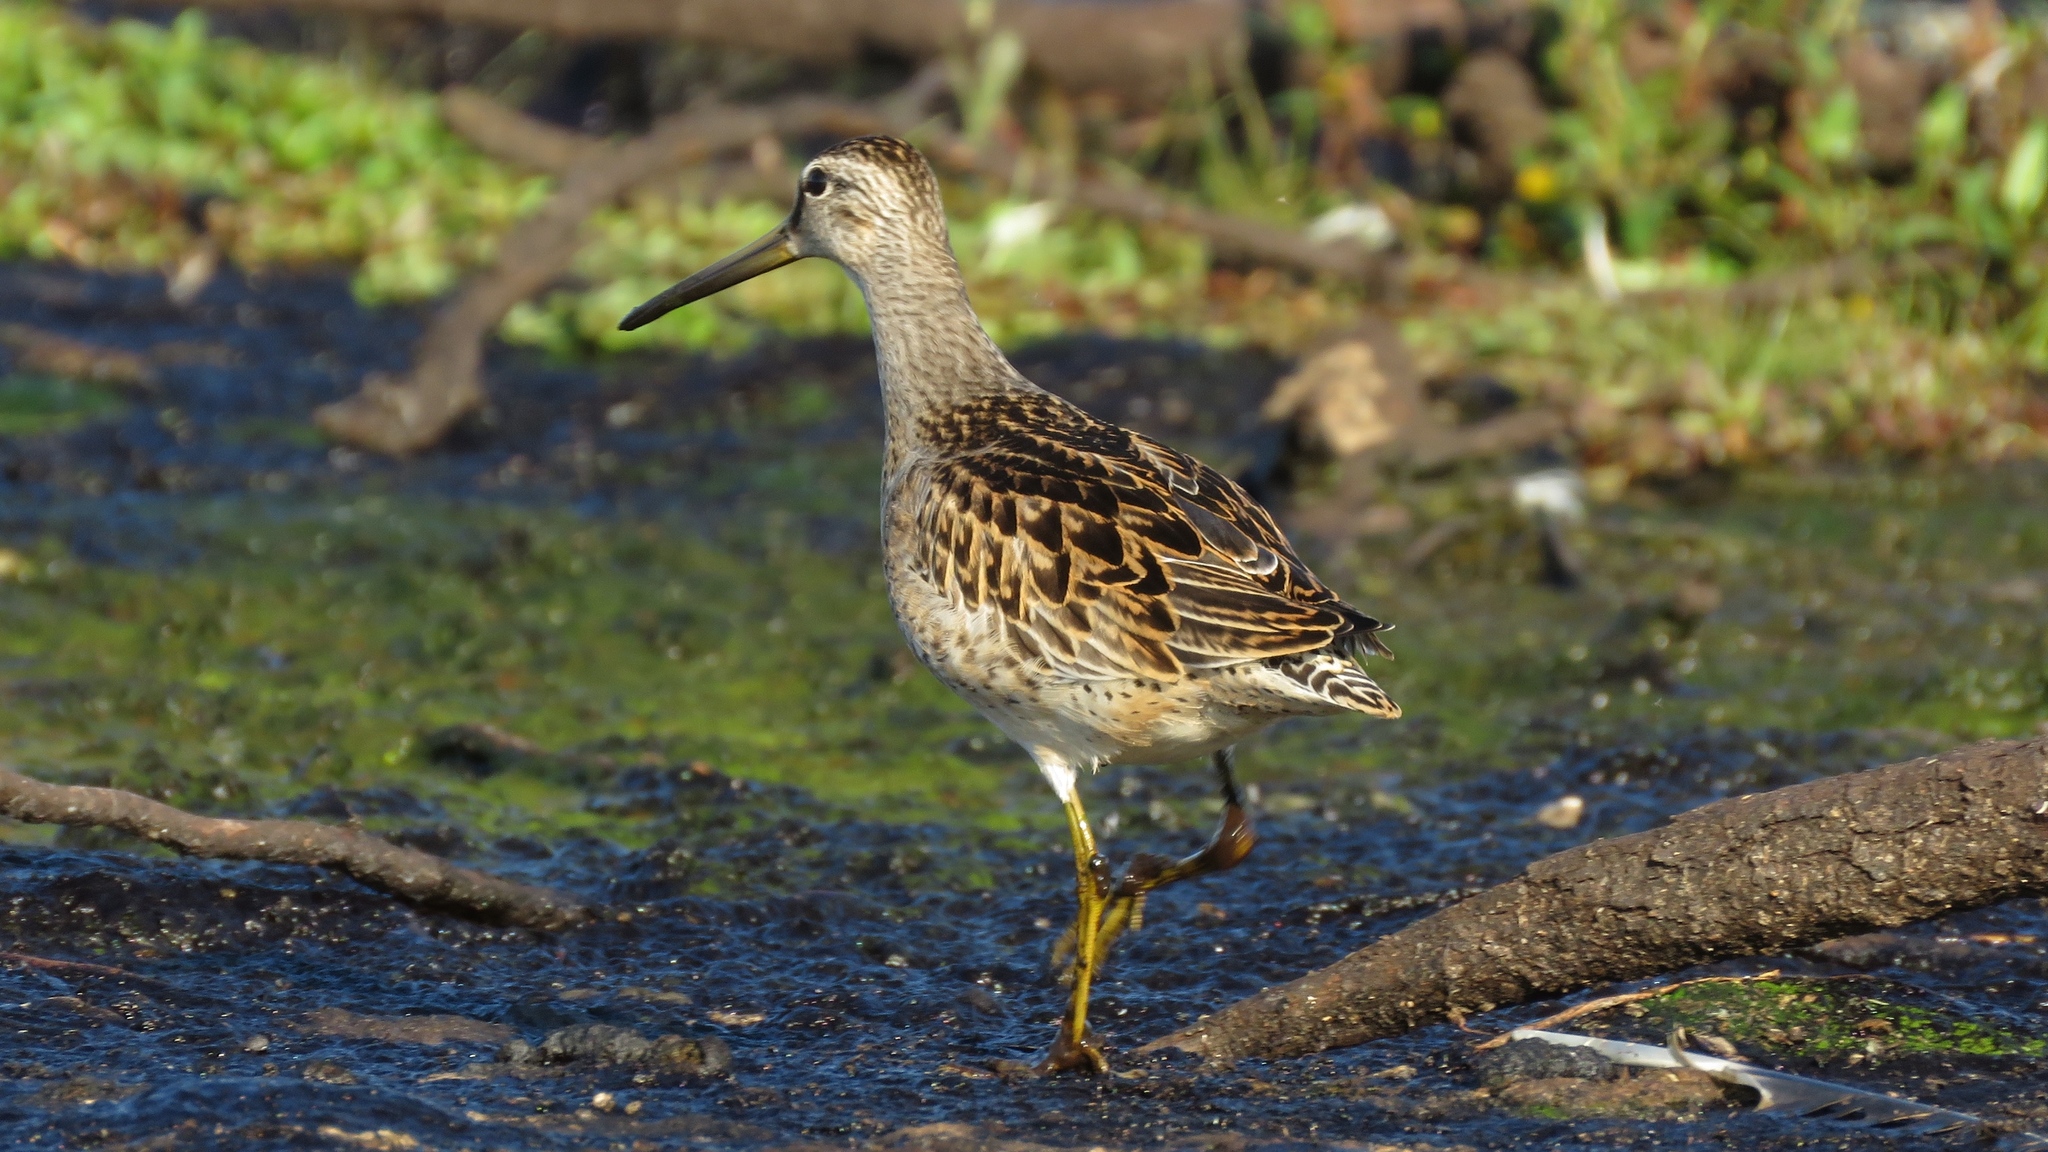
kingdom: Animalia
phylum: Chordata
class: Aves
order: Charadriiformes
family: Scolopacidae
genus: Limnodromus
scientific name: Limnodromus griseus
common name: Short-billed dowitcher
